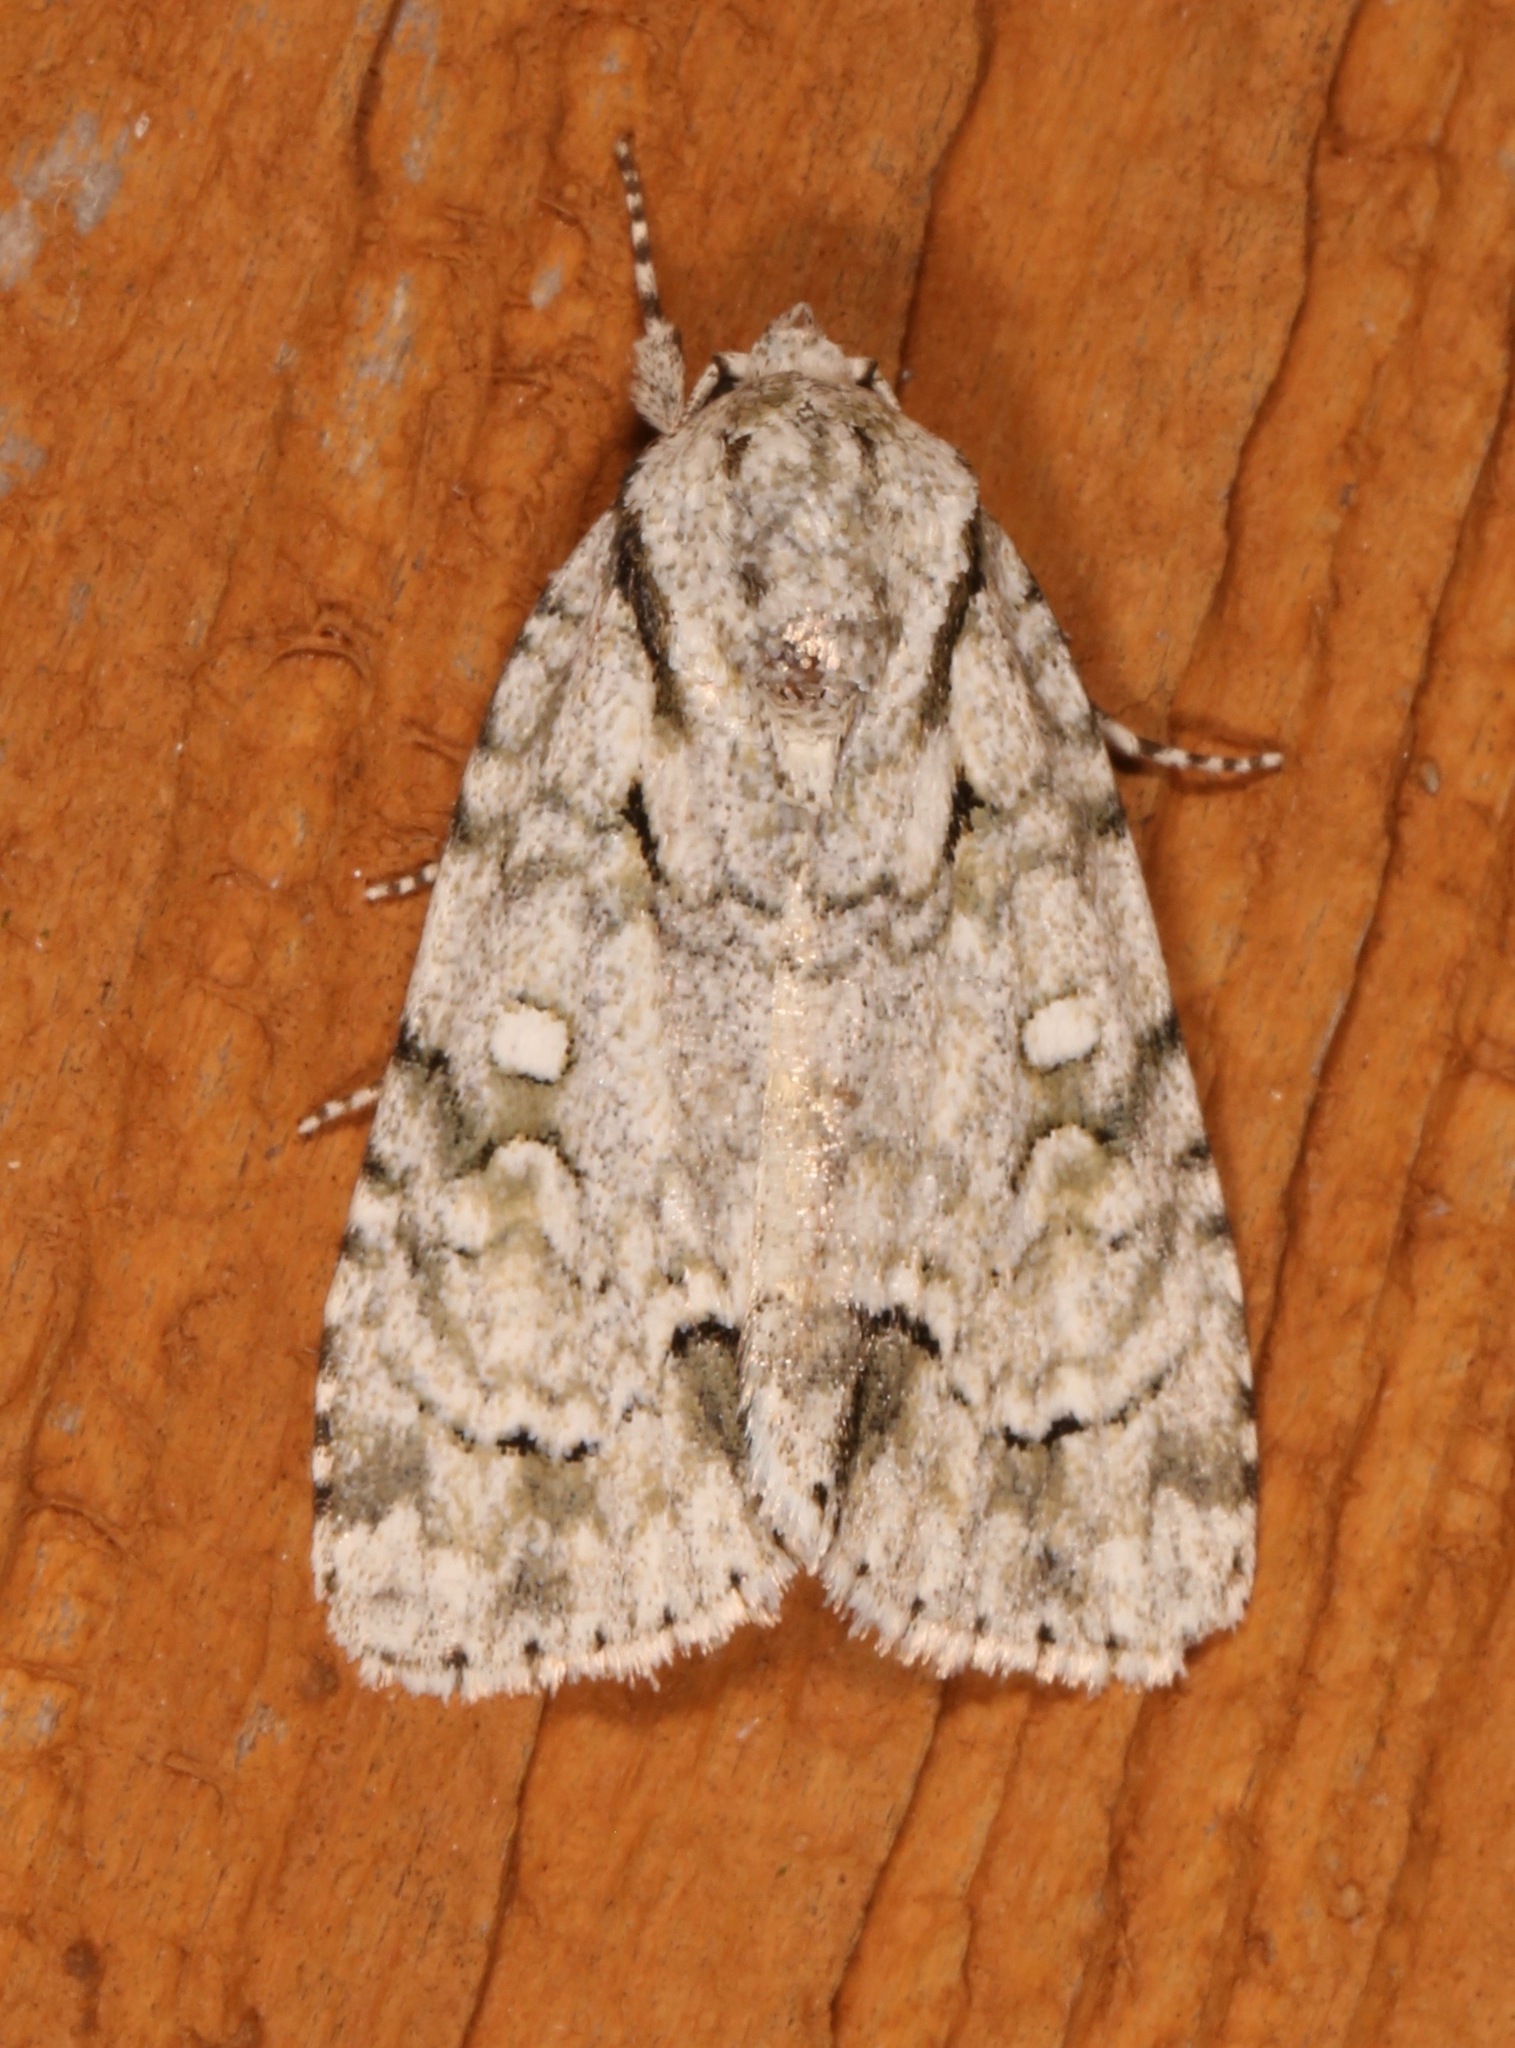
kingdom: Animalia
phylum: Arthropoda
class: Insecta
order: Lepidoptera
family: Noctuidae
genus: Acronicta
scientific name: Acronicta vinnula
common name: Delightful dagger
